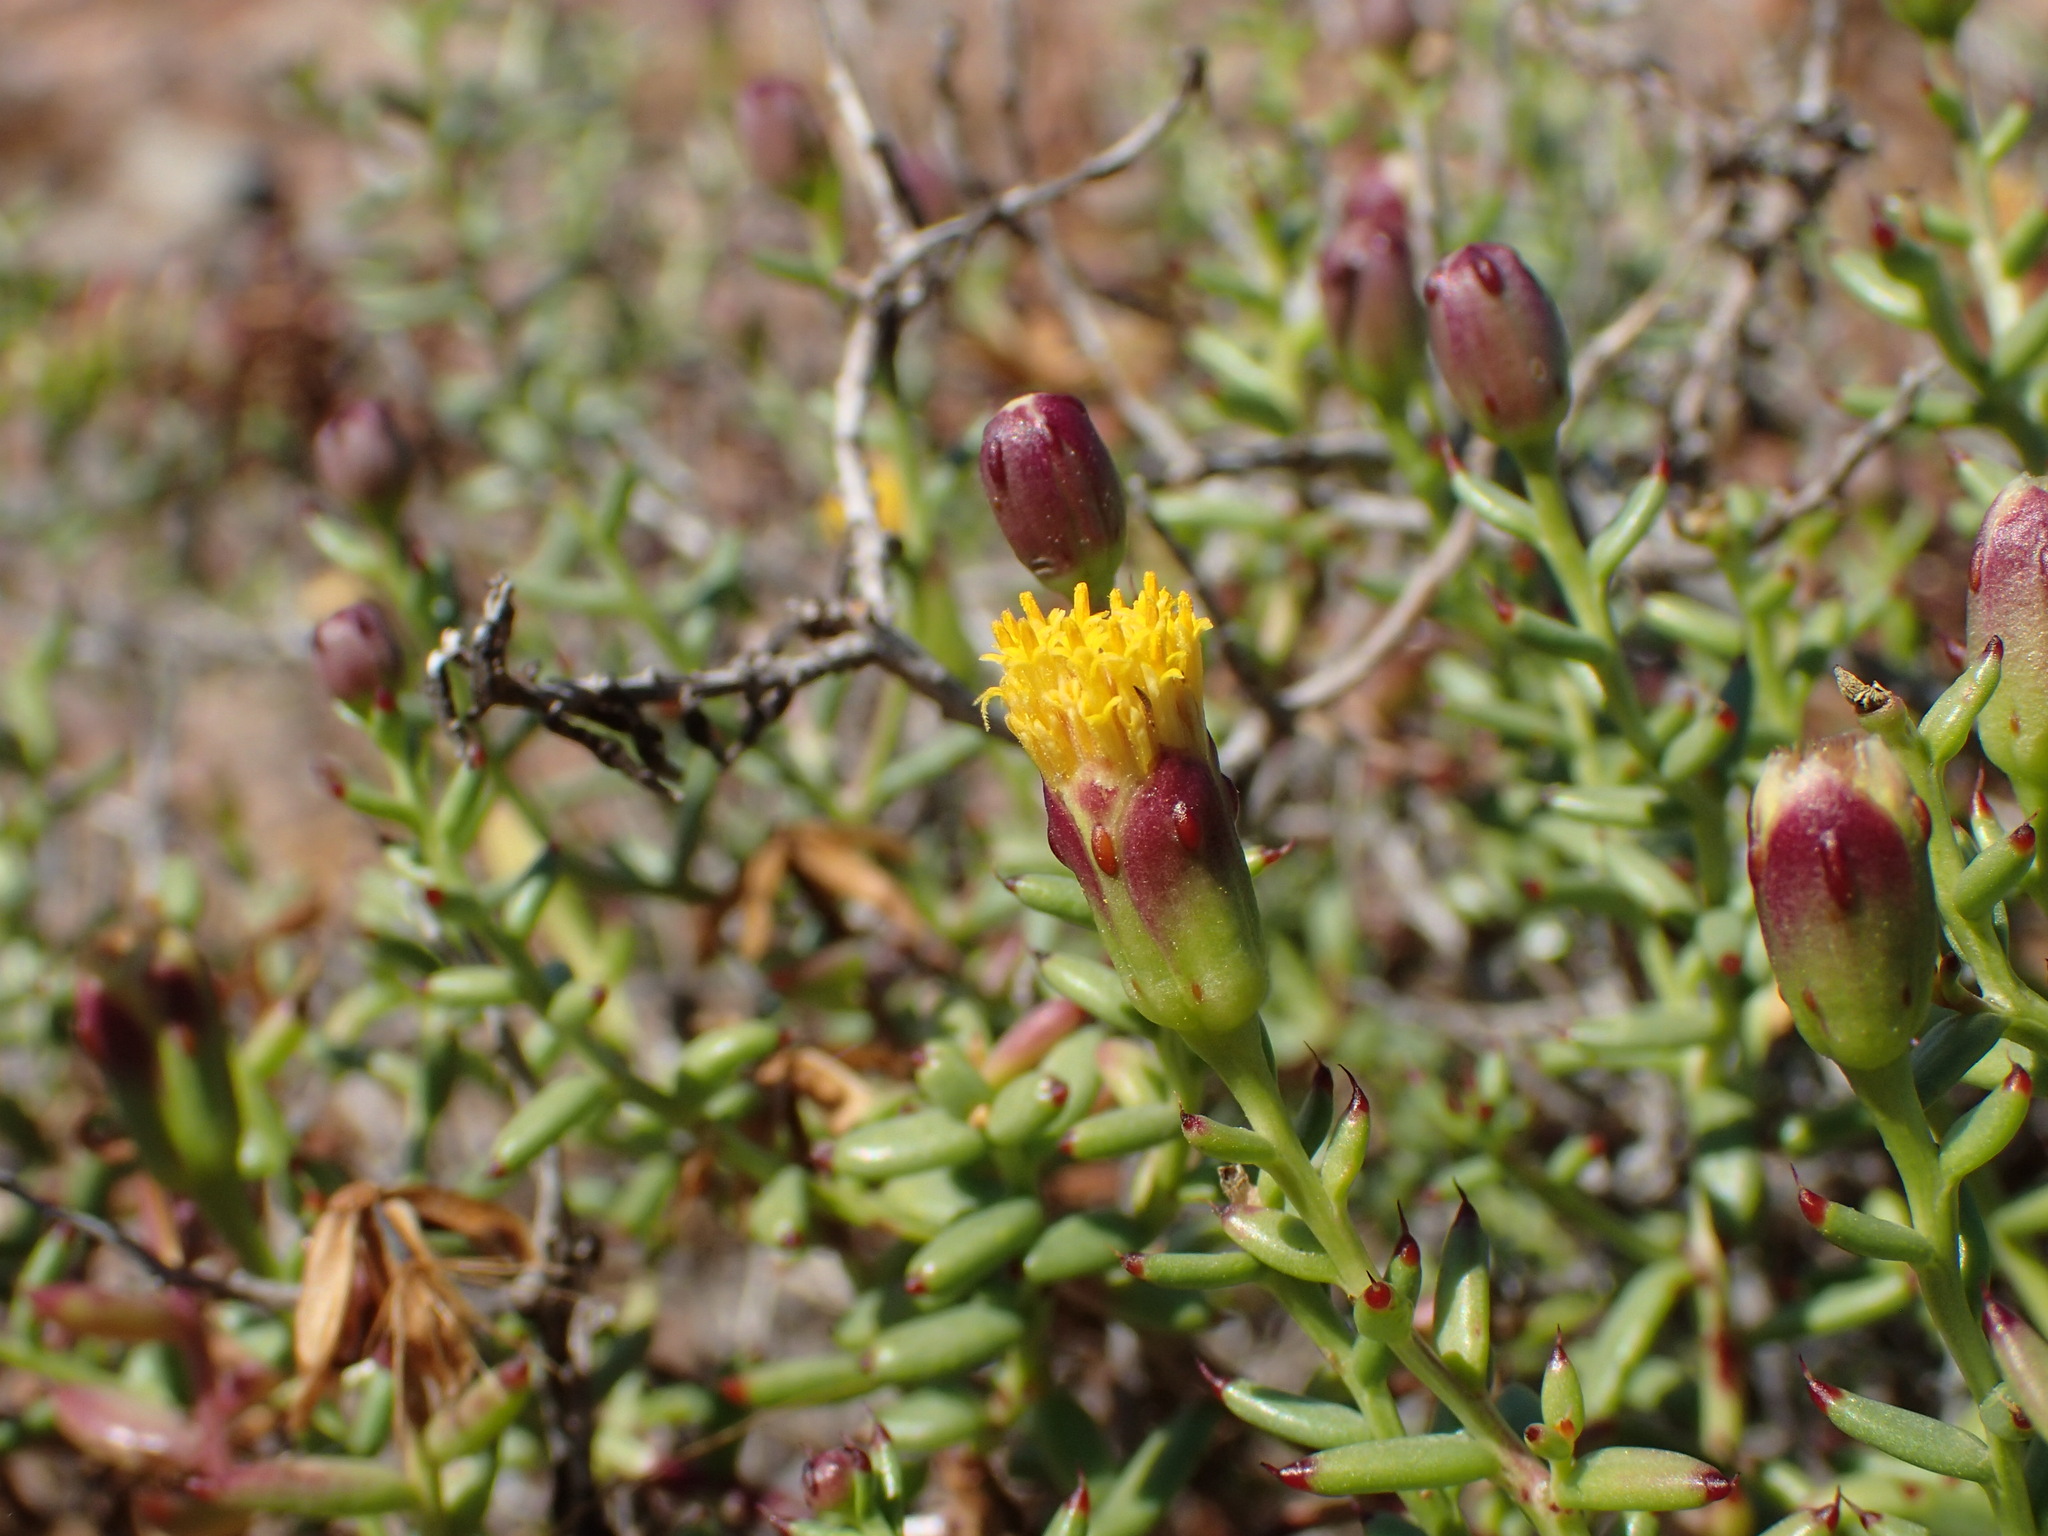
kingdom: Plantae
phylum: Tracheophyta
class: Magnoliopsida
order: Asterales
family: Asteraceae
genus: Bajacalia
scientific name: Bajacalia crassifolia
